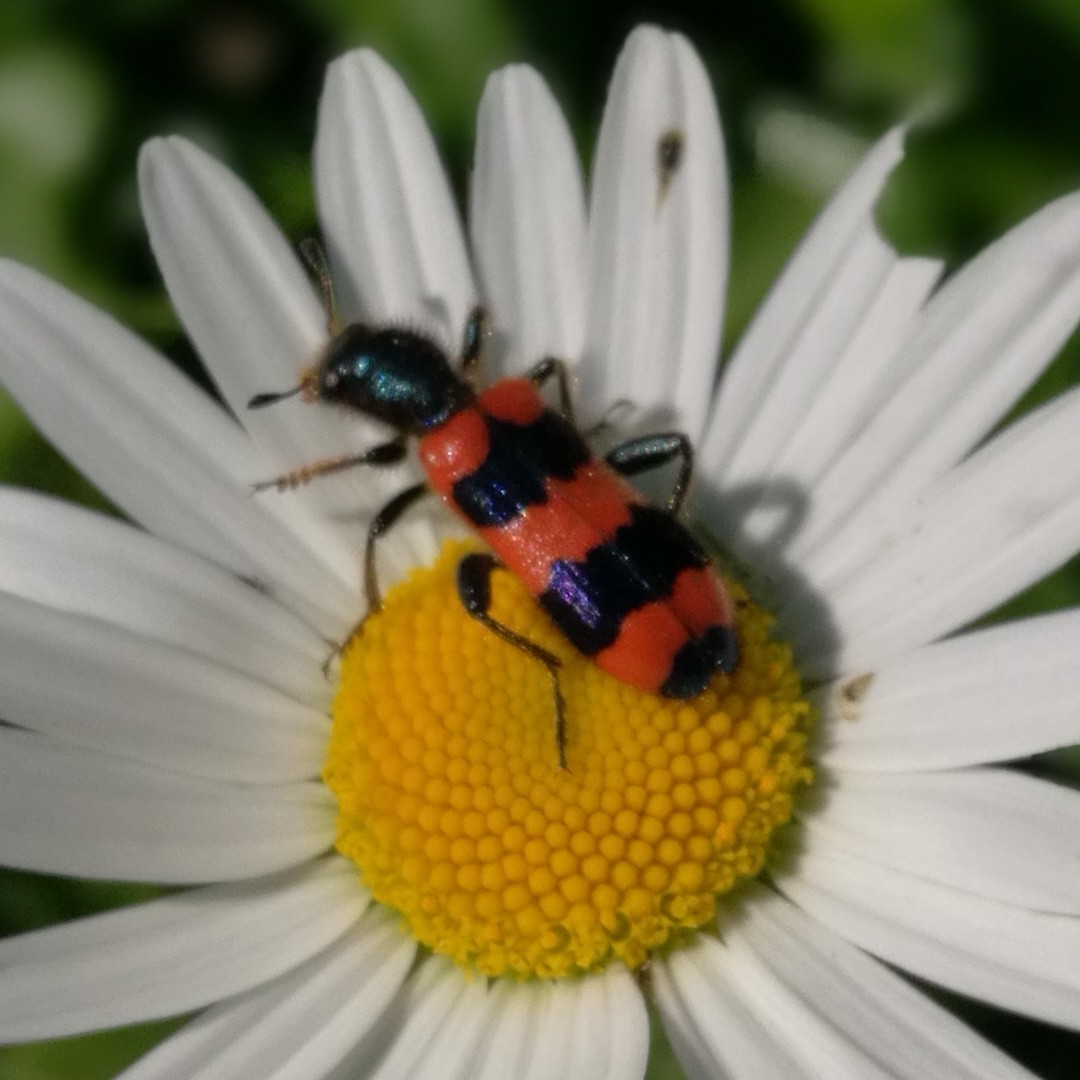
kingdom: Animalia
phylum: Arthropoda
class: Insecta
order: Coleoptera
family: Cleridae
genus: Trichodes
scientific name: Trichodes apiarius
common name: Bee-eating beetle
